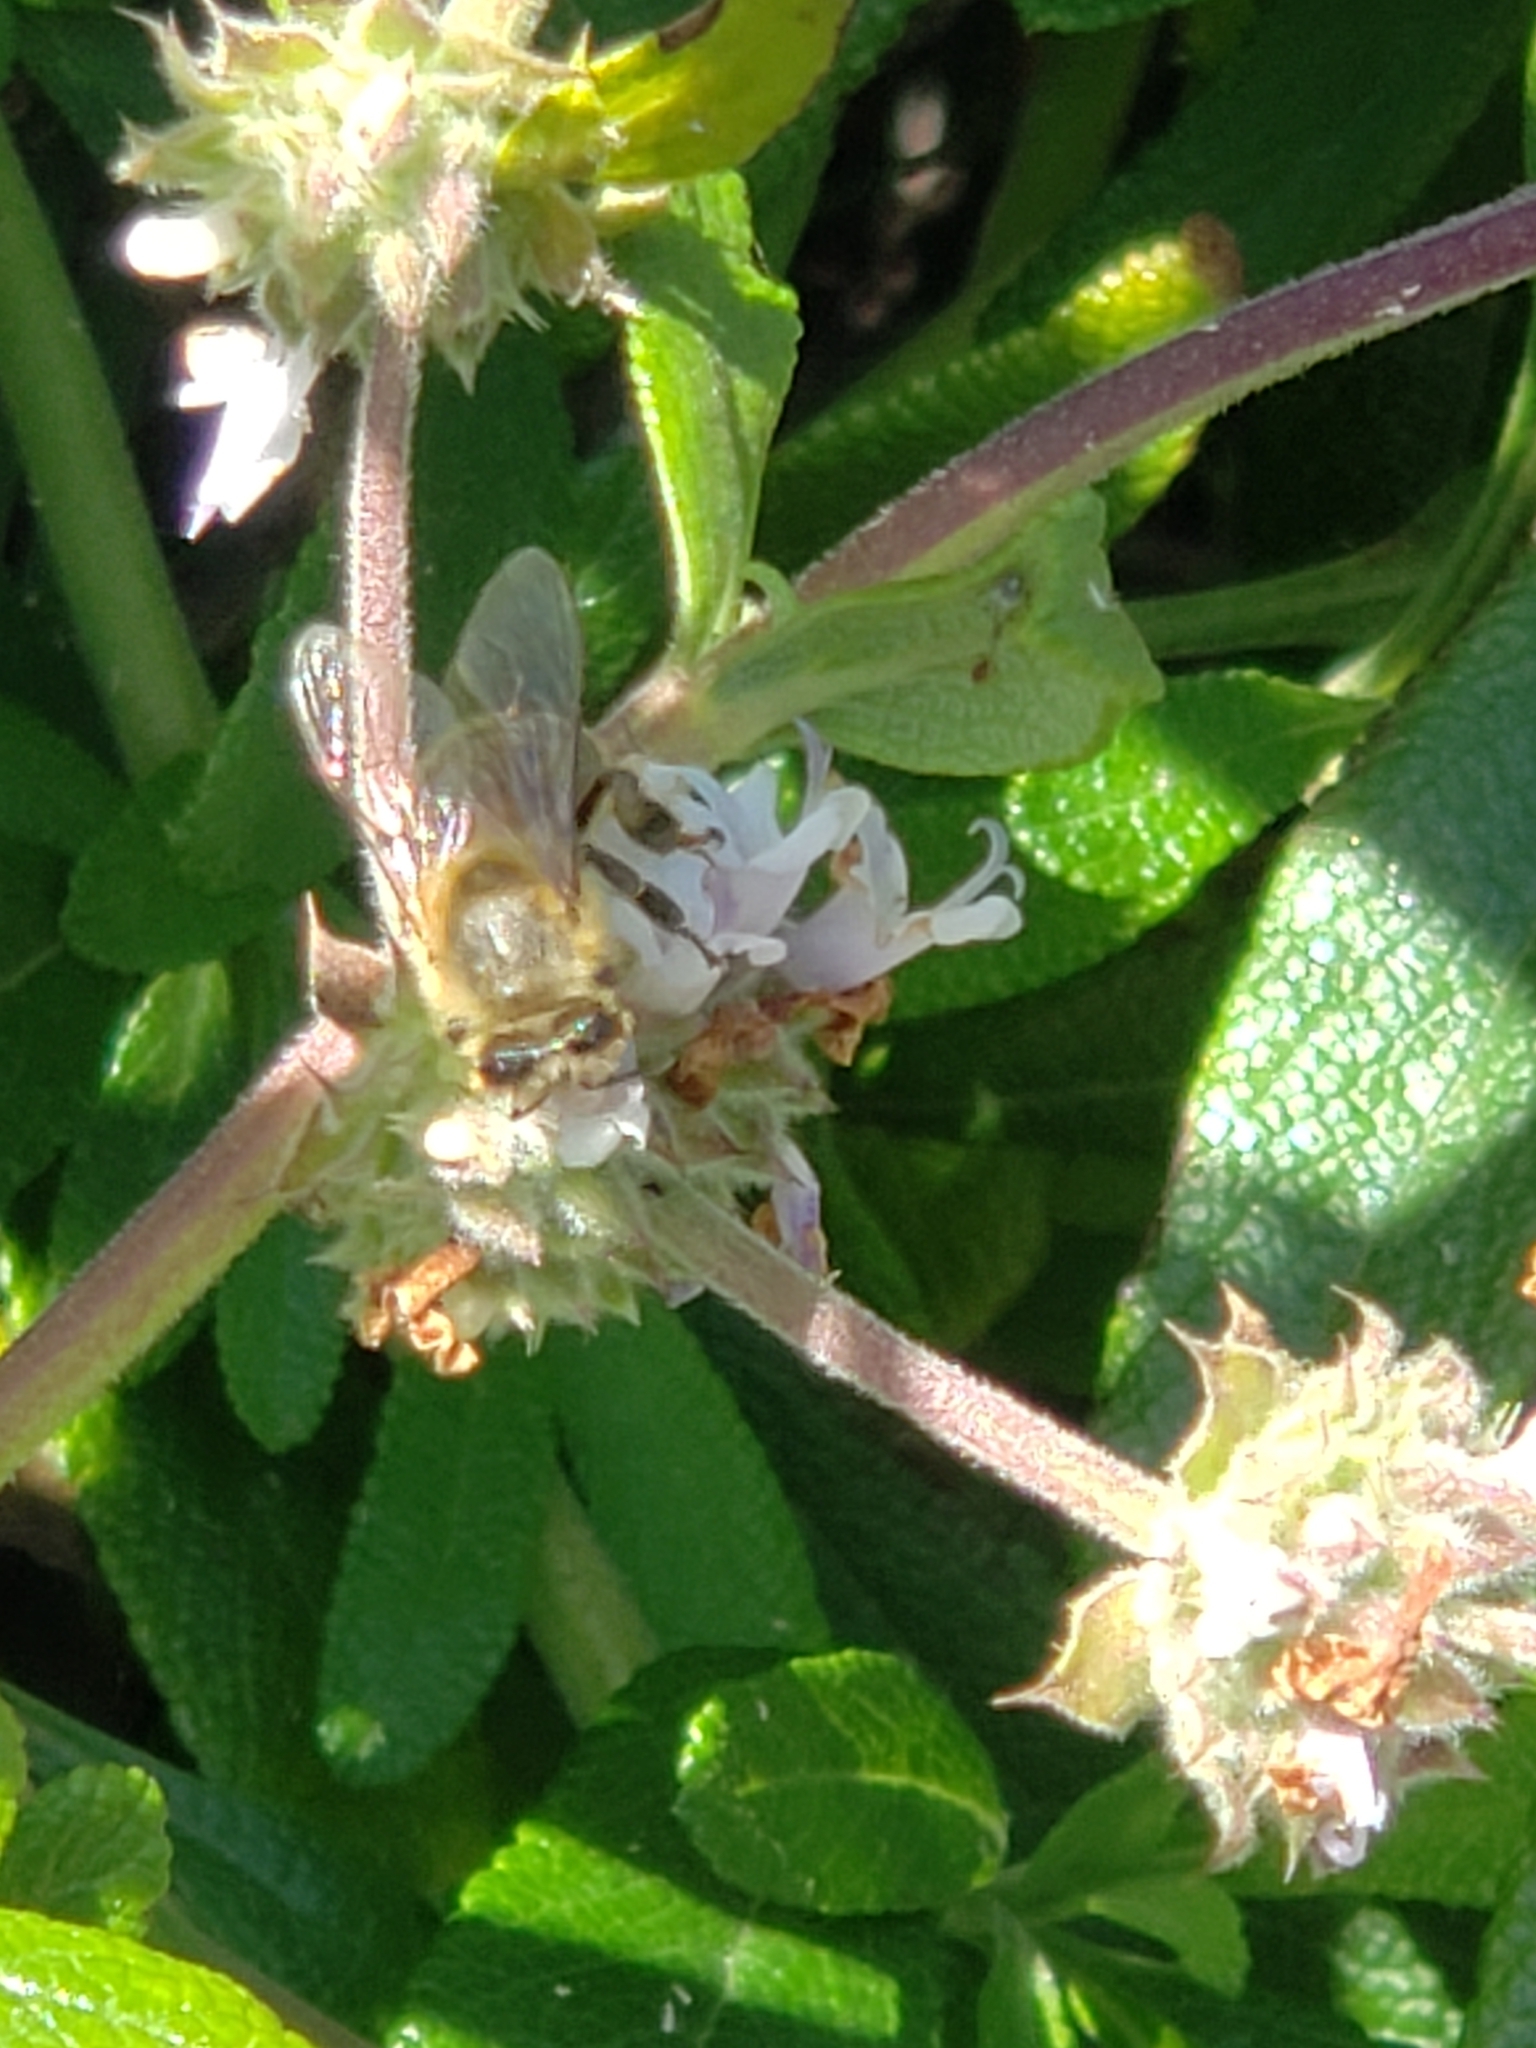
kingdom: Animalia
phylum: Arthropoda
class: Insecta
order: Hymenoptera
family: Apidae
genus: Apis
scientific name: Apis mellifera
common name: Honey bee
